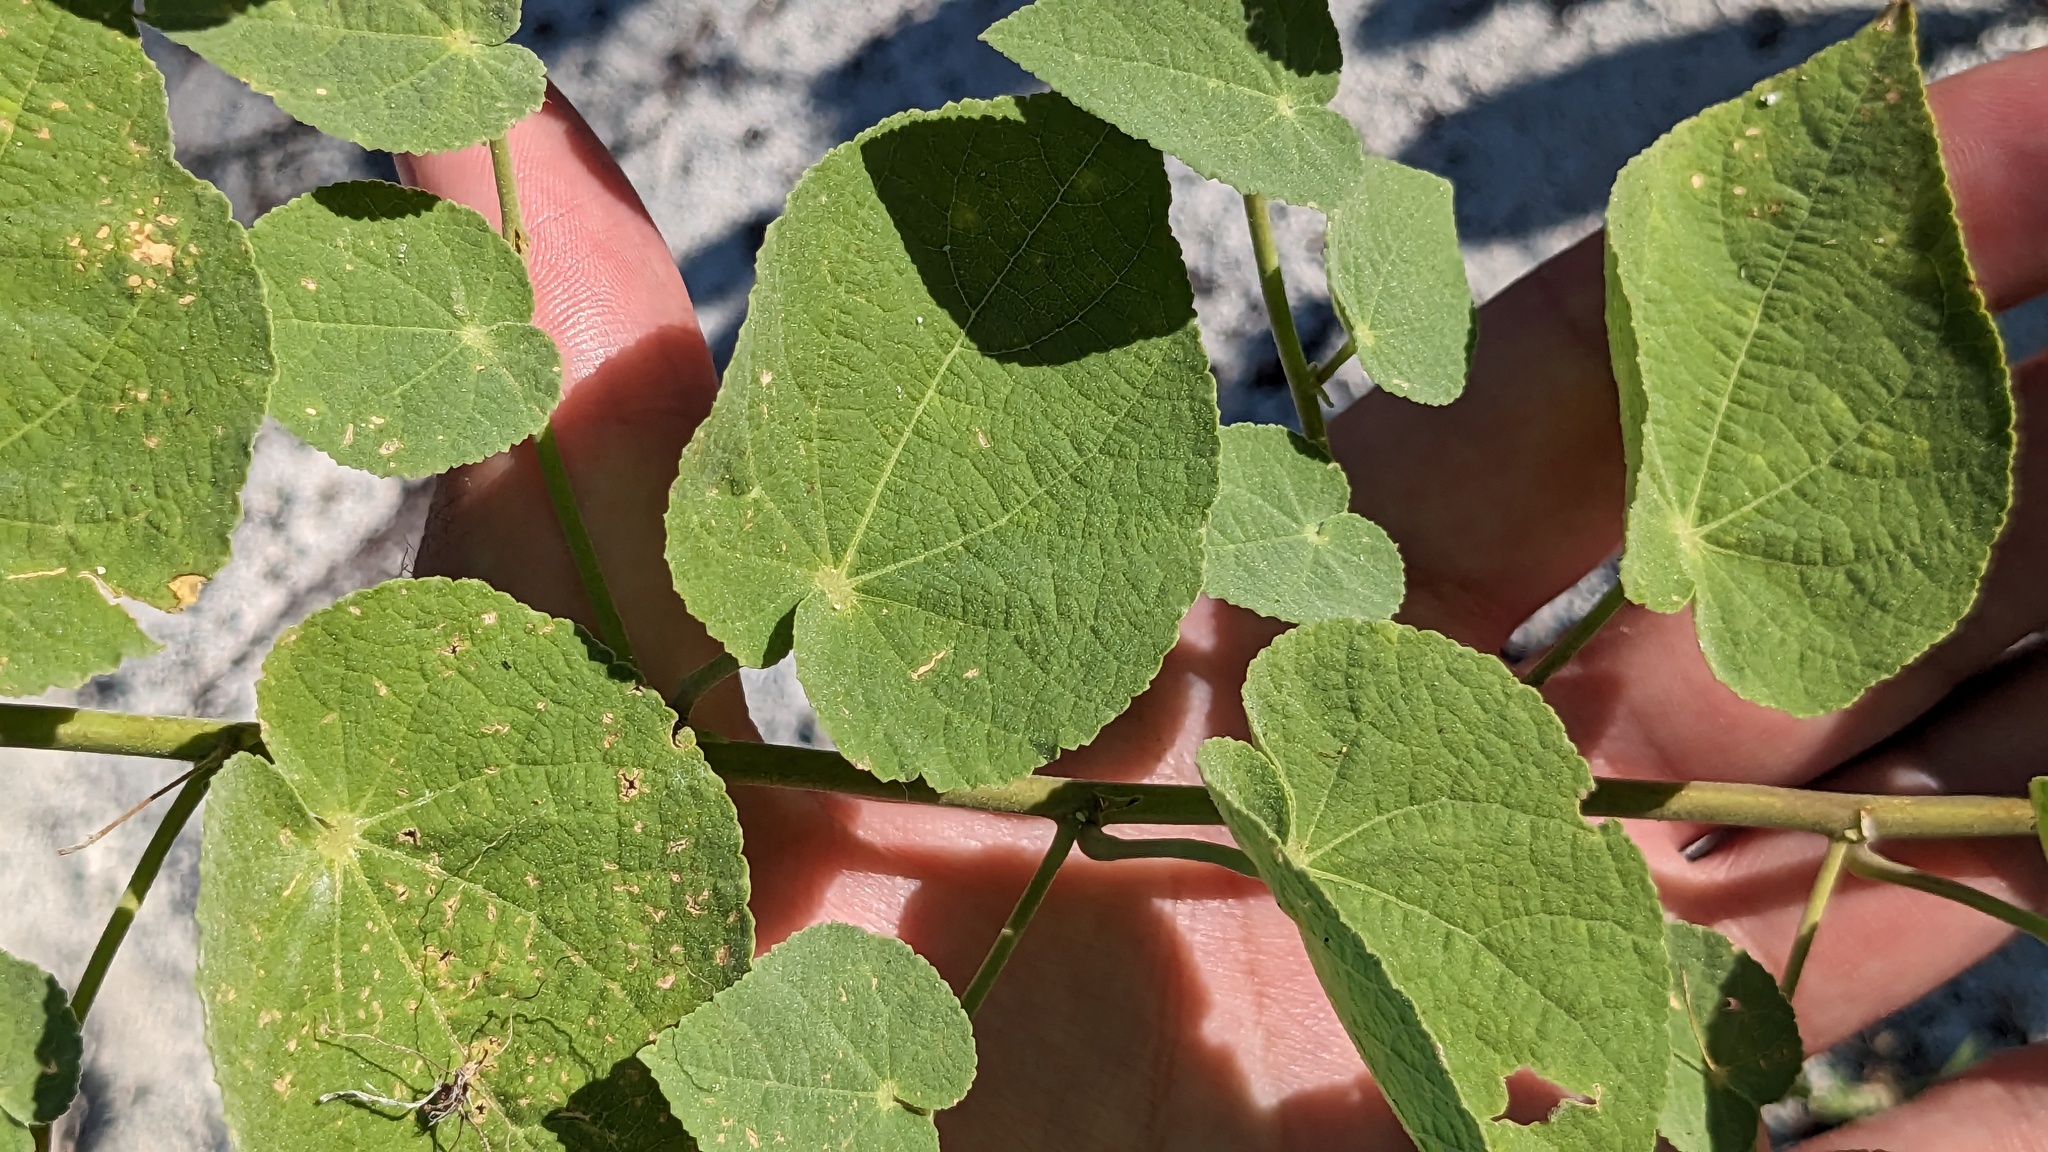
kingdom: Plantae
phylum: Tracheophyta
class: Magnoliopsida
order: Malvales
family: Malvaceae
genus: Herissantia
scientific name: Herissantia crispa
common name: Bladdermallow
